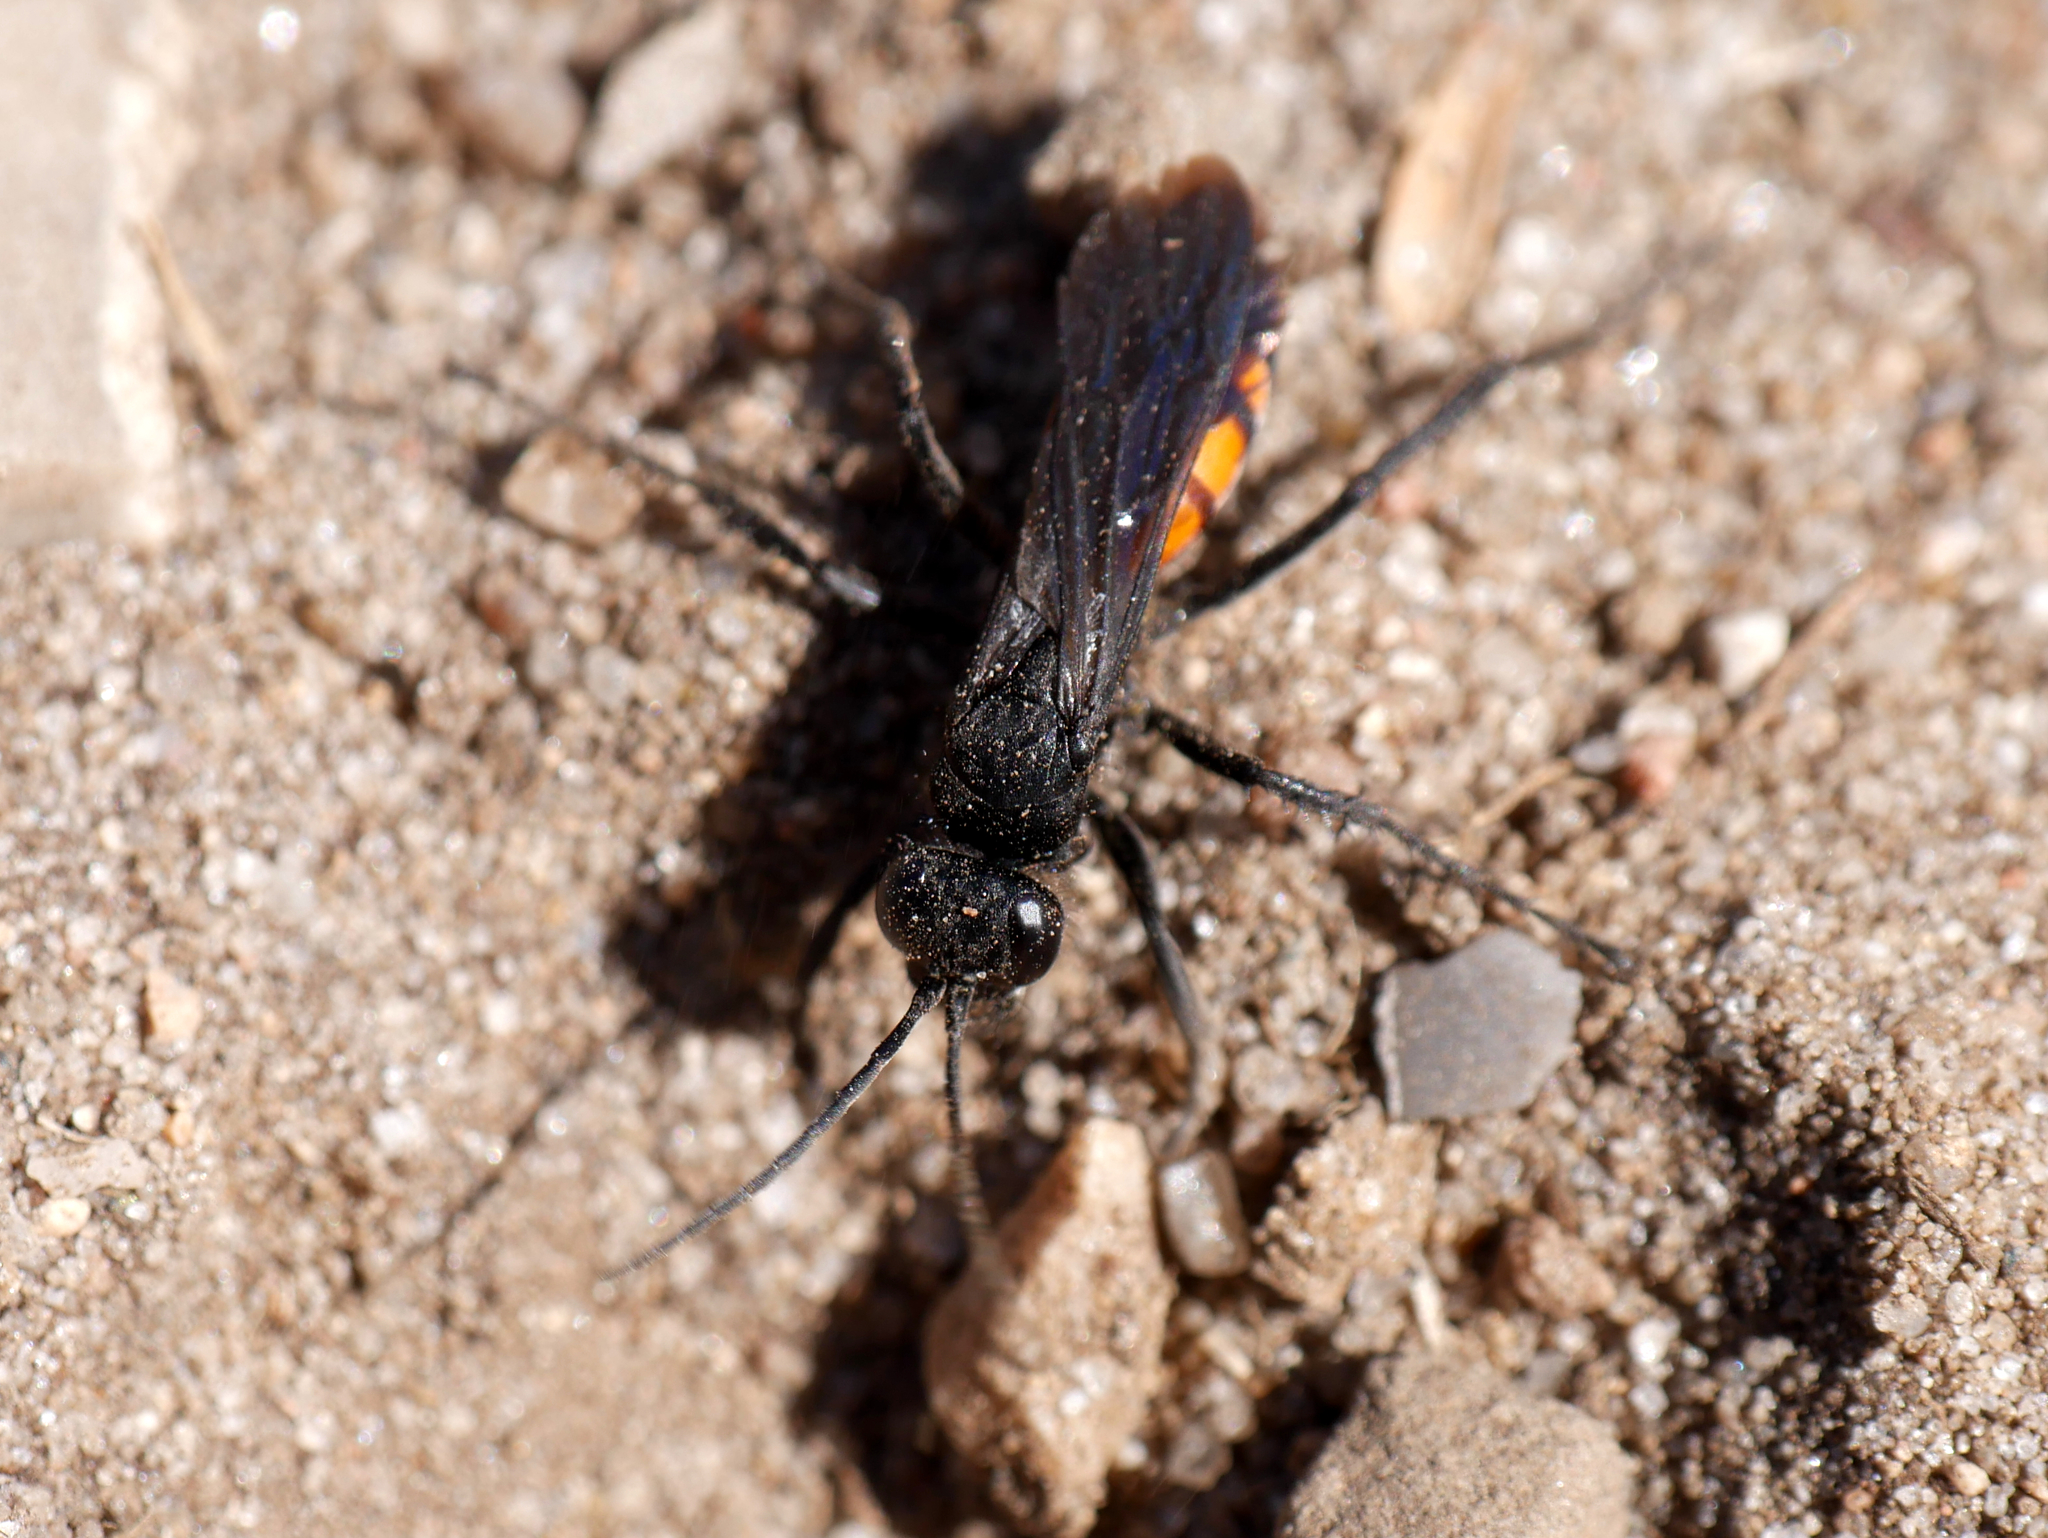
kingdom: Animalia
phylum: Arthropoda
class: Insecta
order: Hymenoptera
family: Pompilidae
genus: Anoplius
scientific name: Anoplius viaticus
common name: Black banded spider wasp
